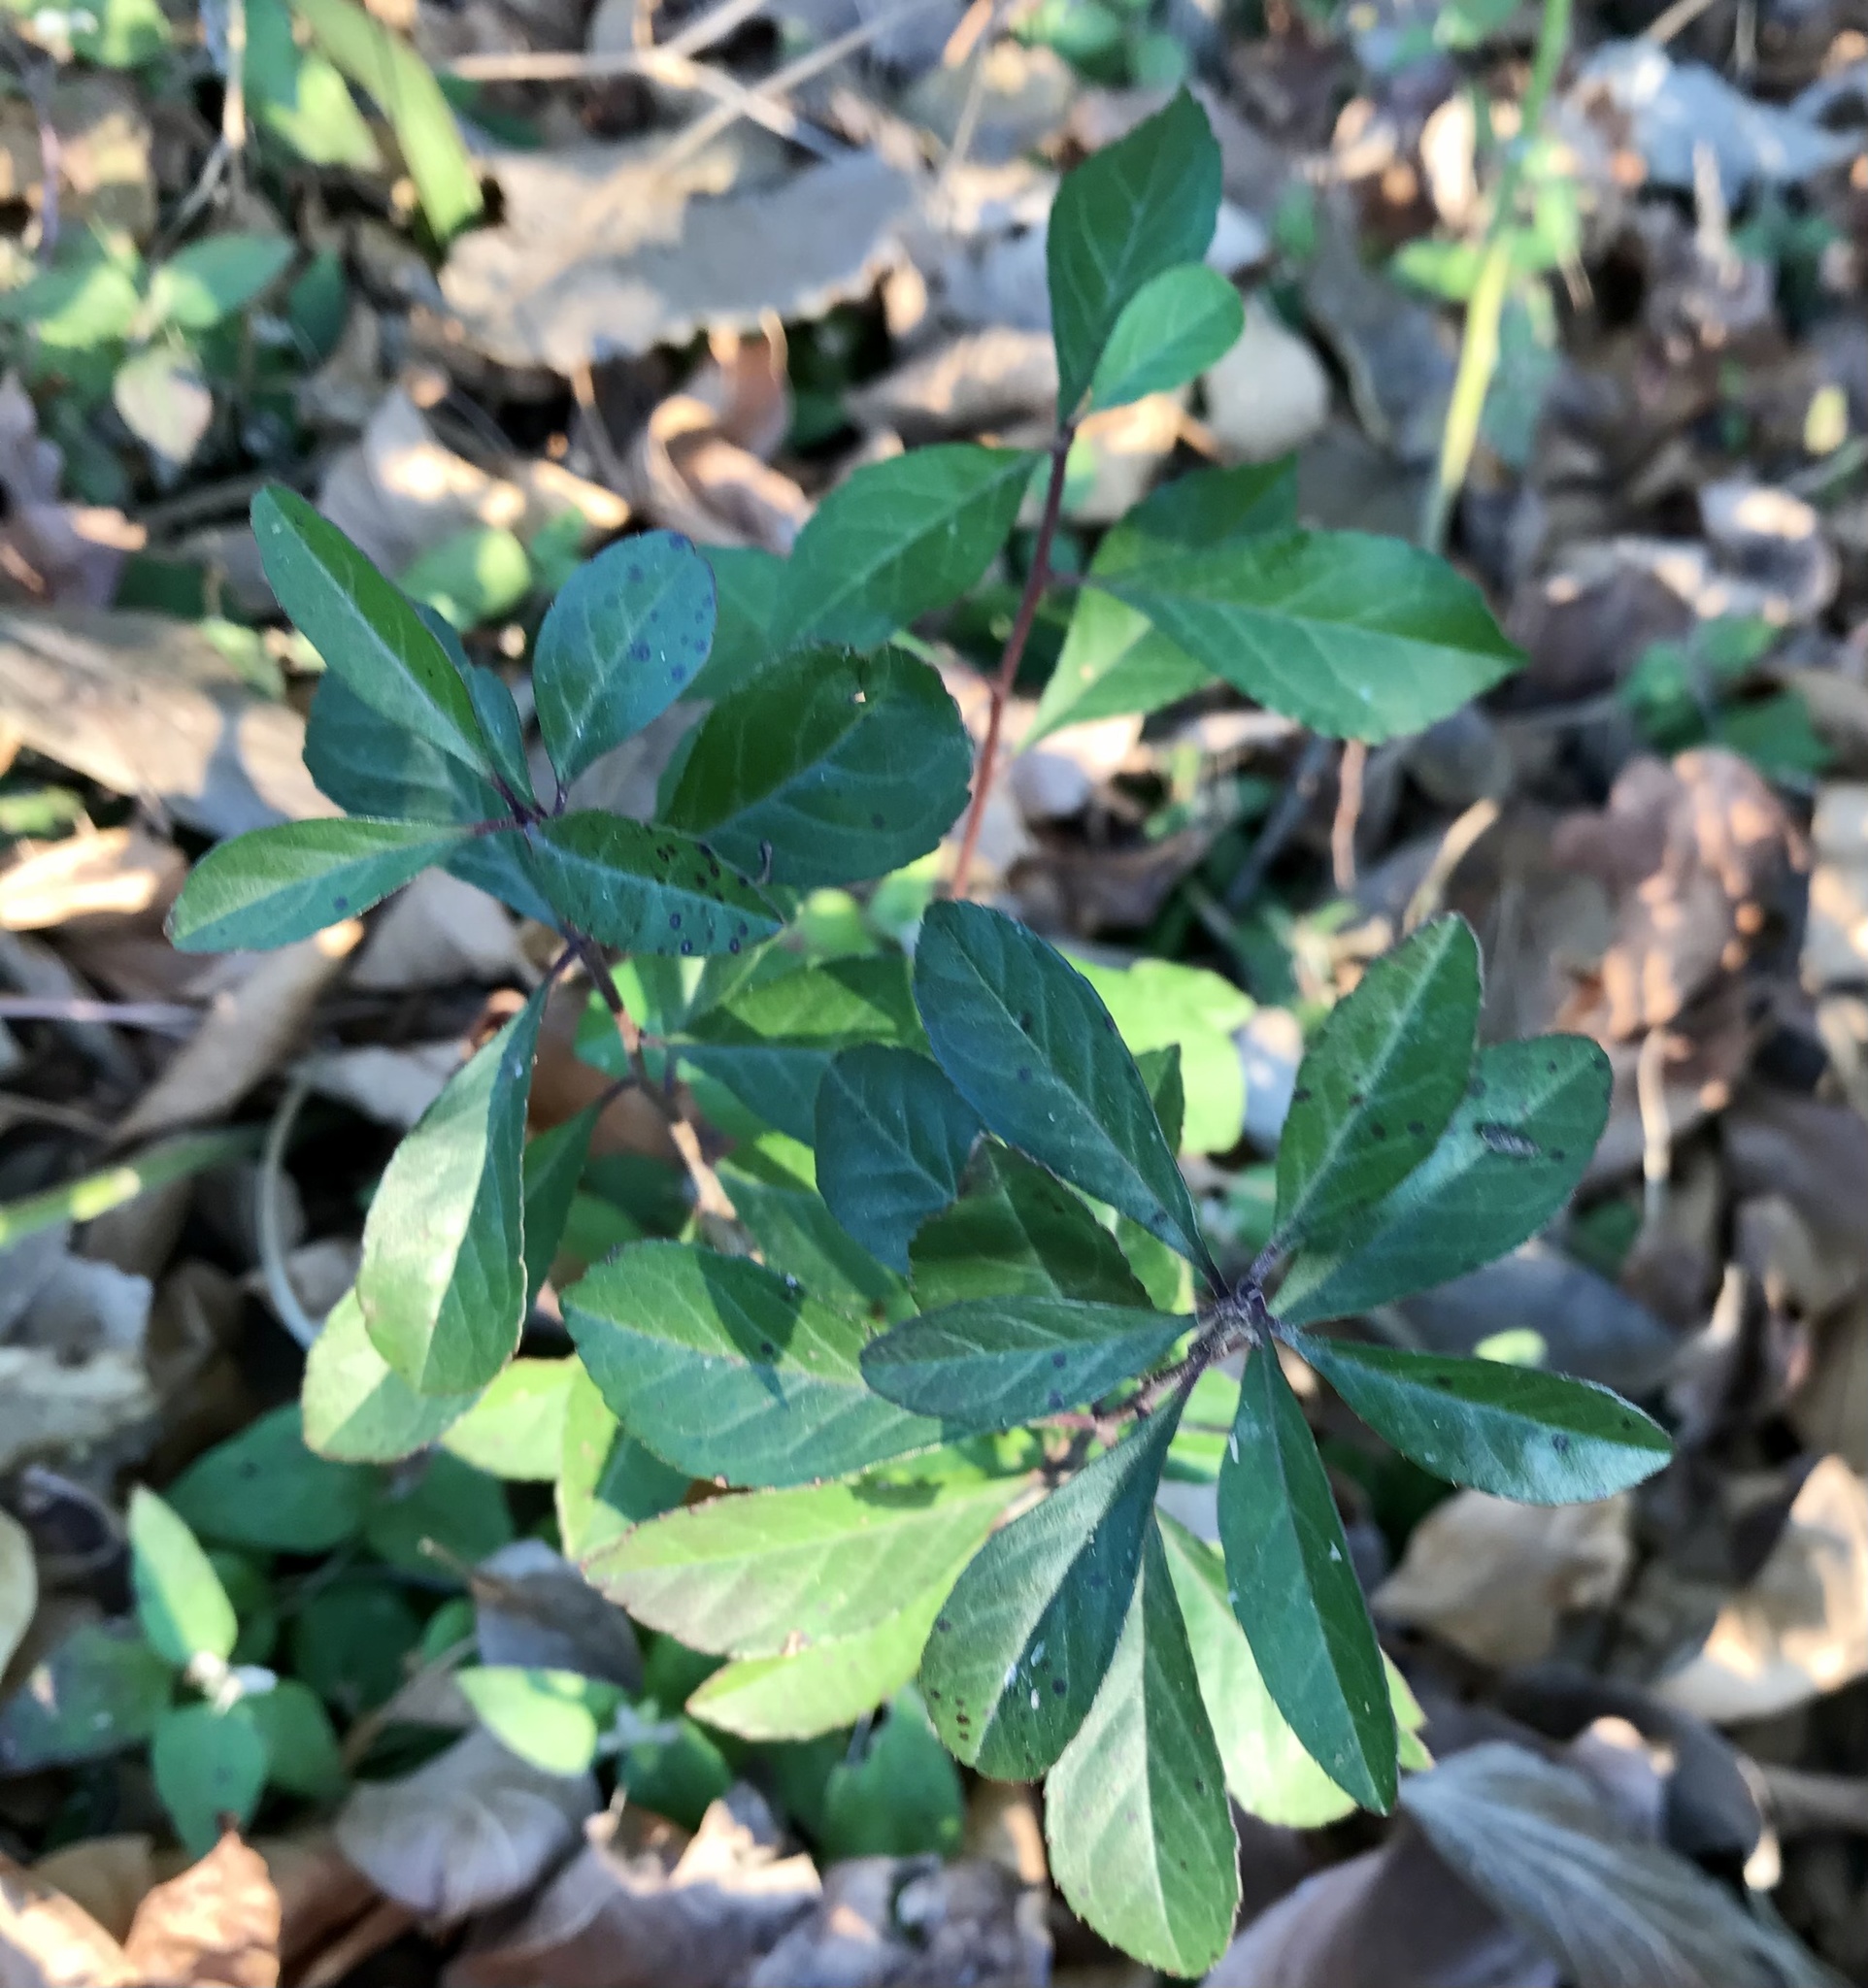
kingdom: Plantae
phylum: Tracheophyta
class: Magnoliopsida
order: Aquifoliales
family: Aquifoliaceae
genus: Ilex
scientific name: Ilex decidua
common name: Possum-haw
